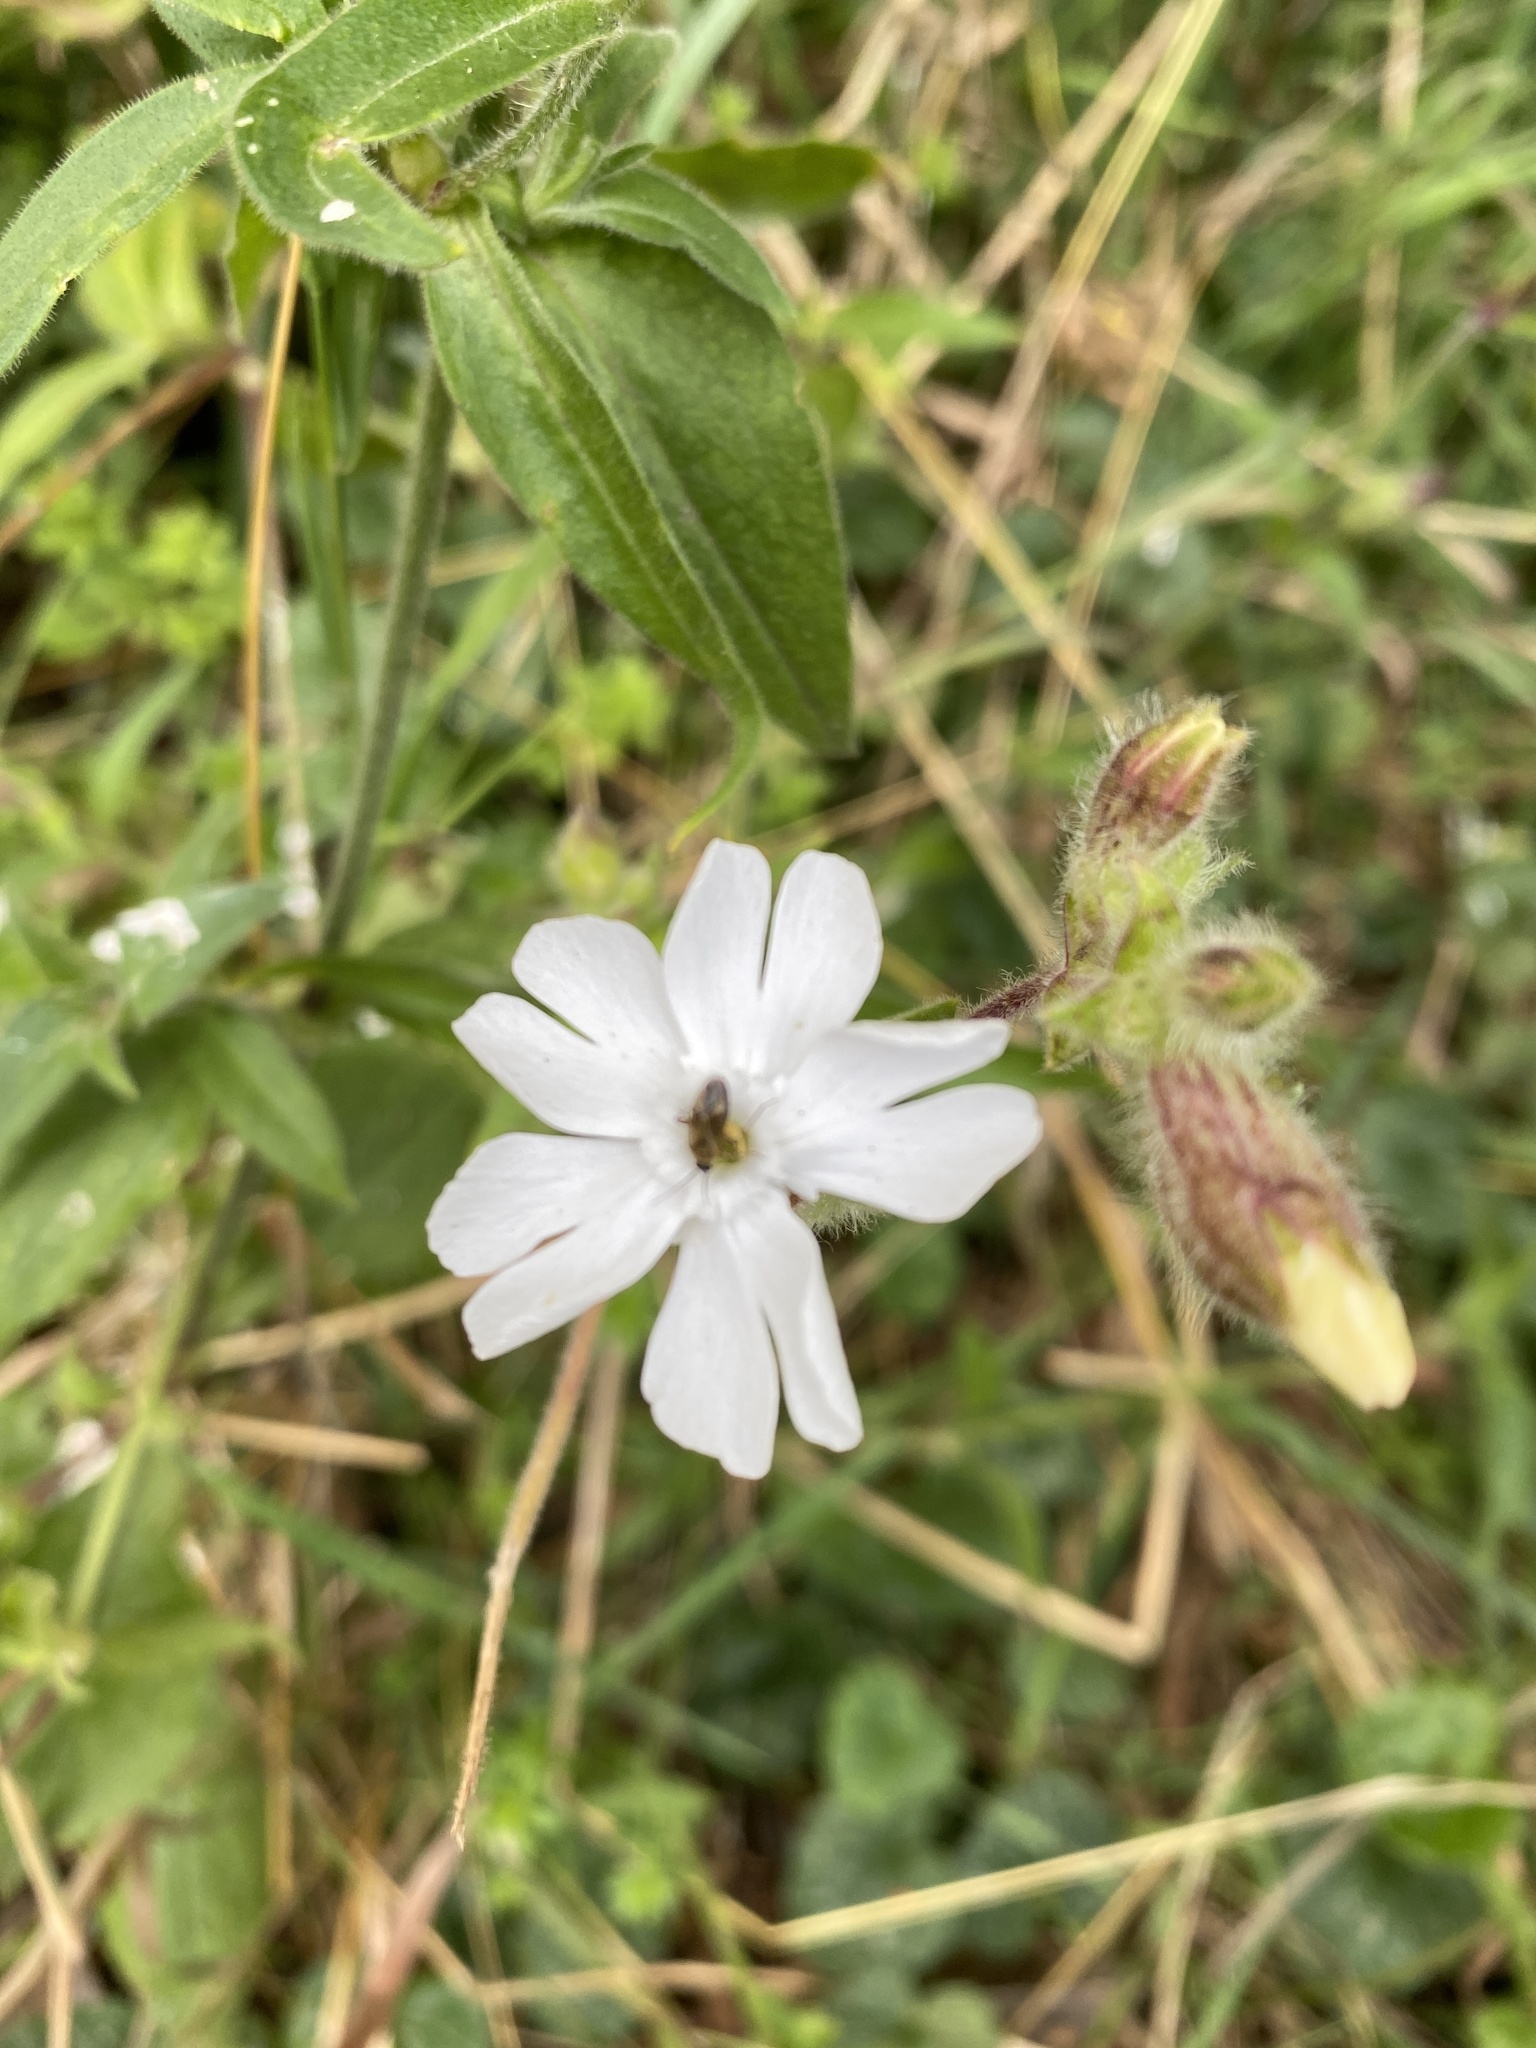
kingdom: Plantae
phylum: Tracheophyta
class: Magnoliopsida
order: Caryophyllales
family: Caryophyllaceae
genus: Silene
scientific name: Silene latifolia
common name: White campion
